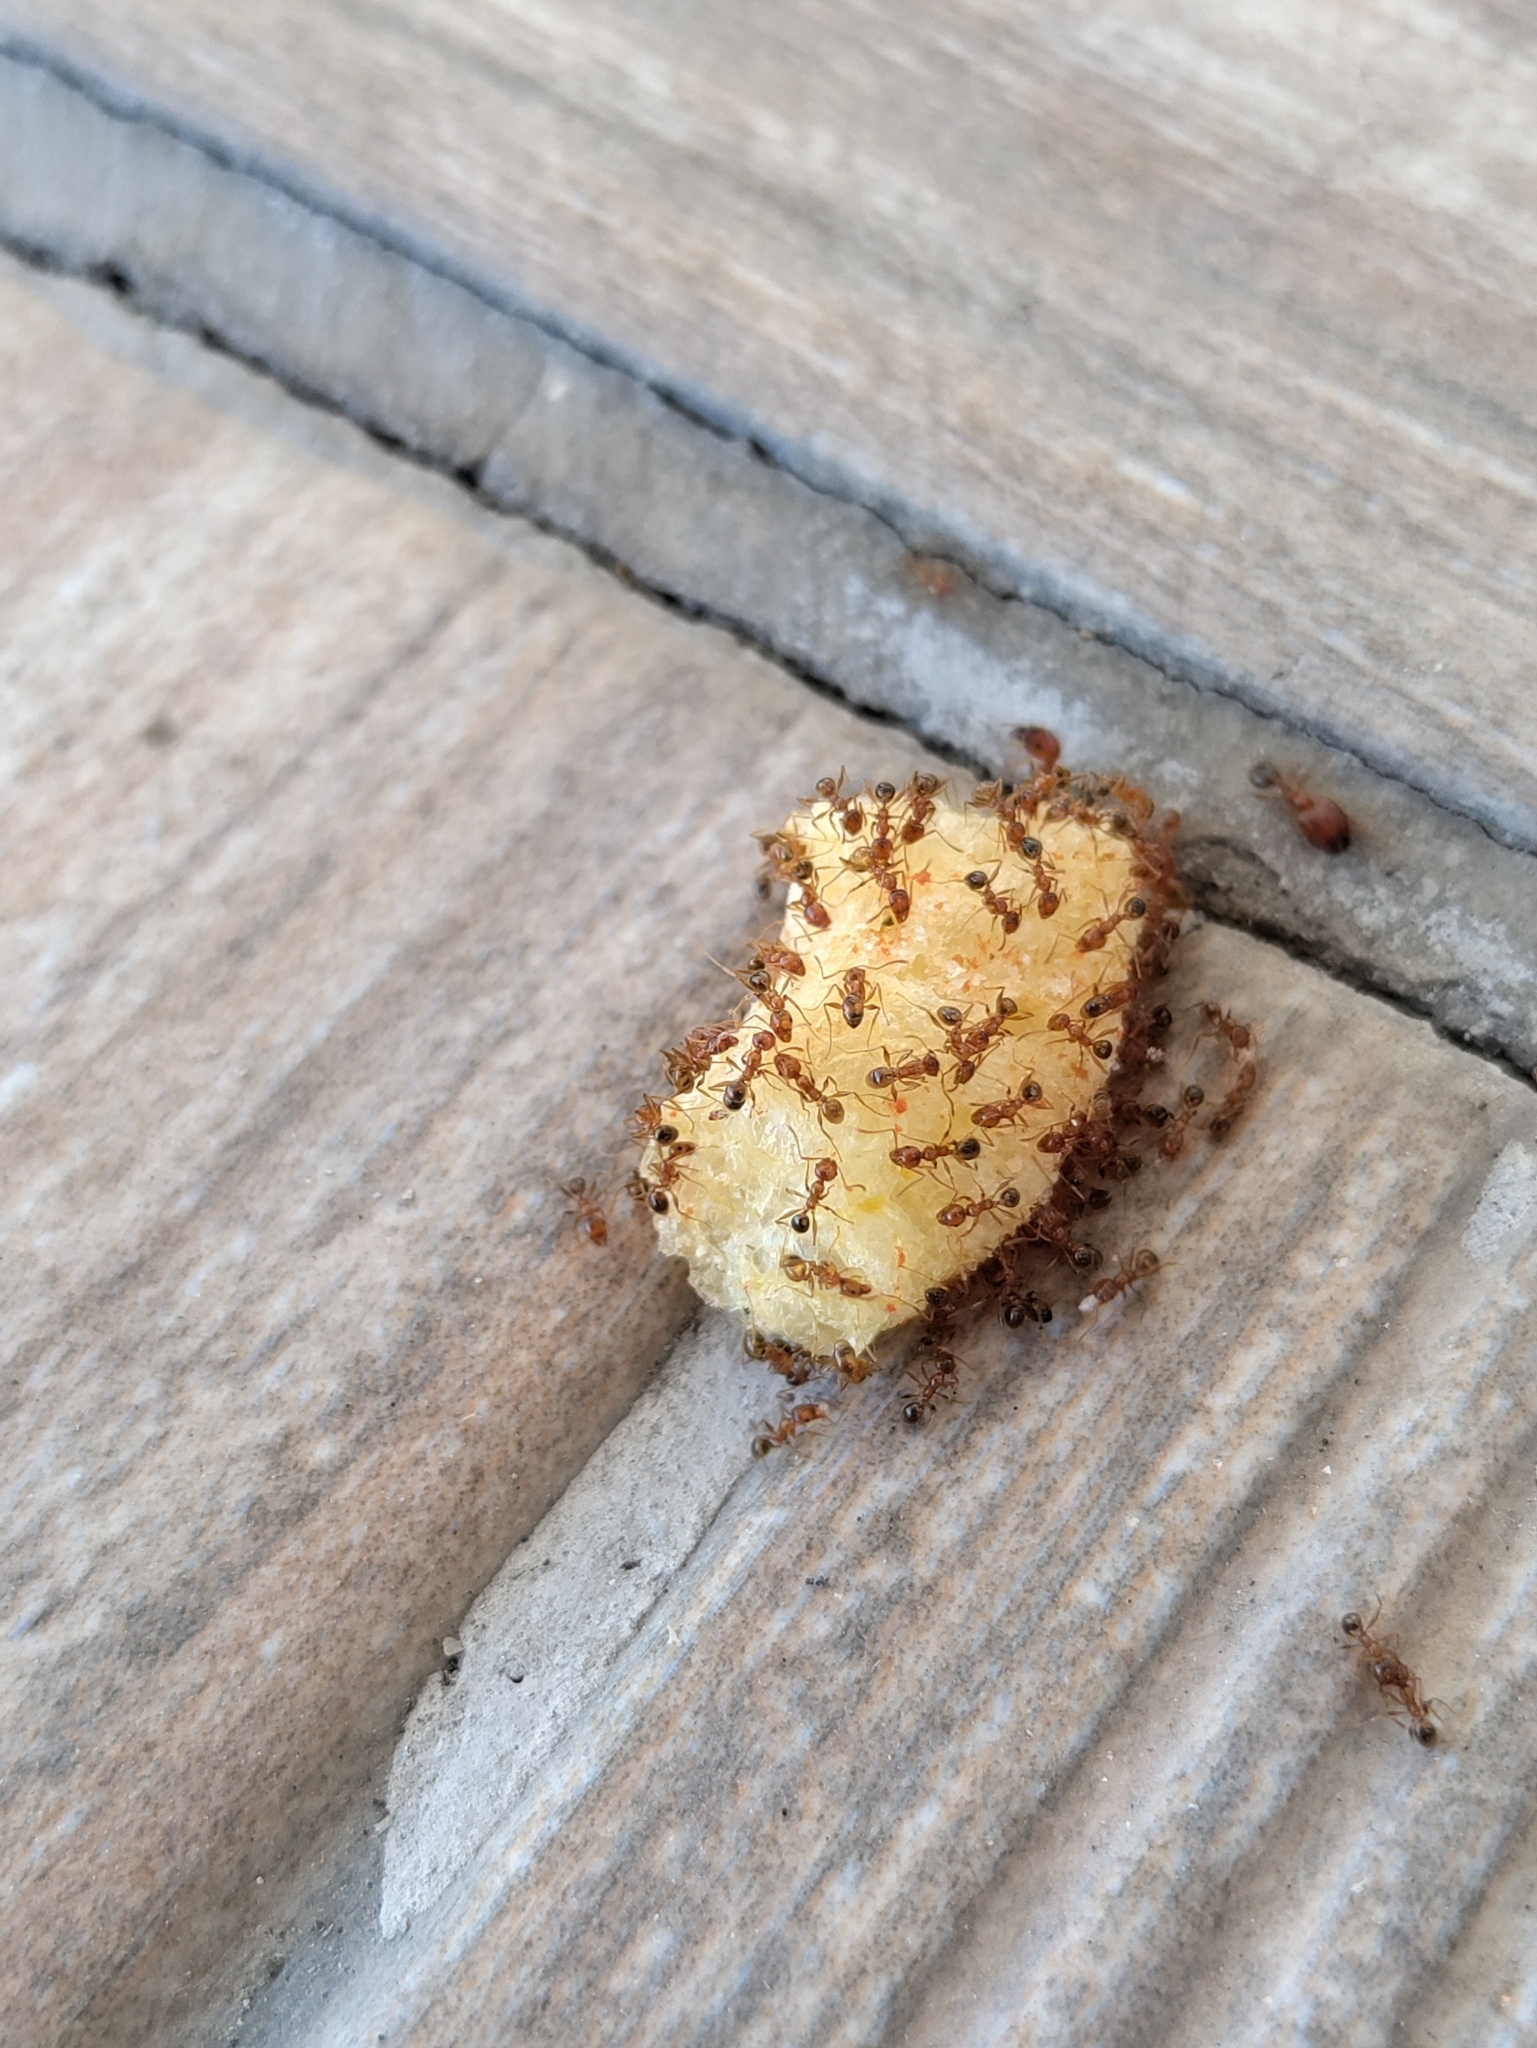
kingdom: Animalia
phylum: Arthropoda
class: Insecta
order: Hymenoptera
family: Formicidae
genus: Pheidole
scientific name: Pheidole koshewnikovi
